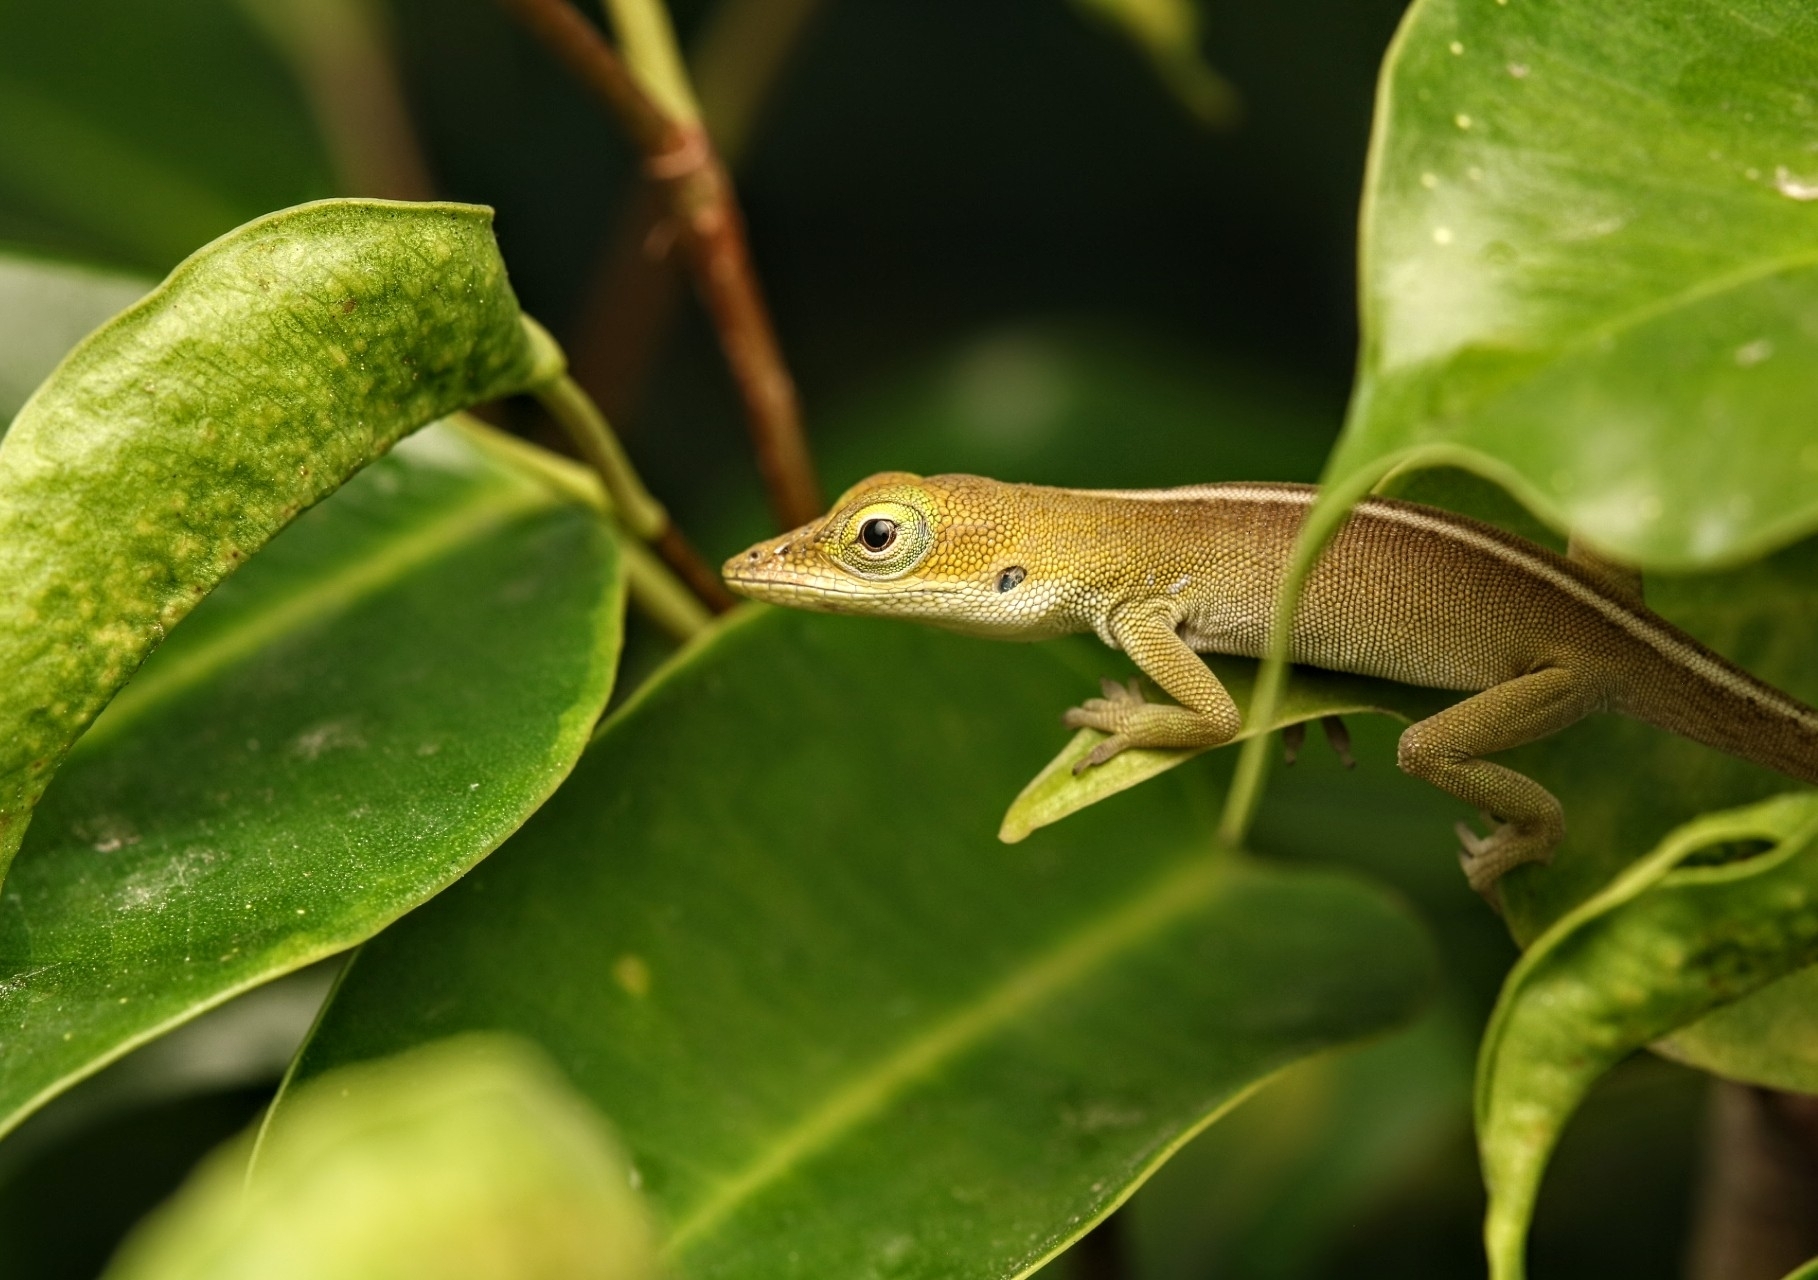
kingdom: Animalia
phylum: Chordata
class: Squamata
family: Dactyloidae
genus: Anolis
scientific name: Anolis porcatus
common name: Cuban green anole
